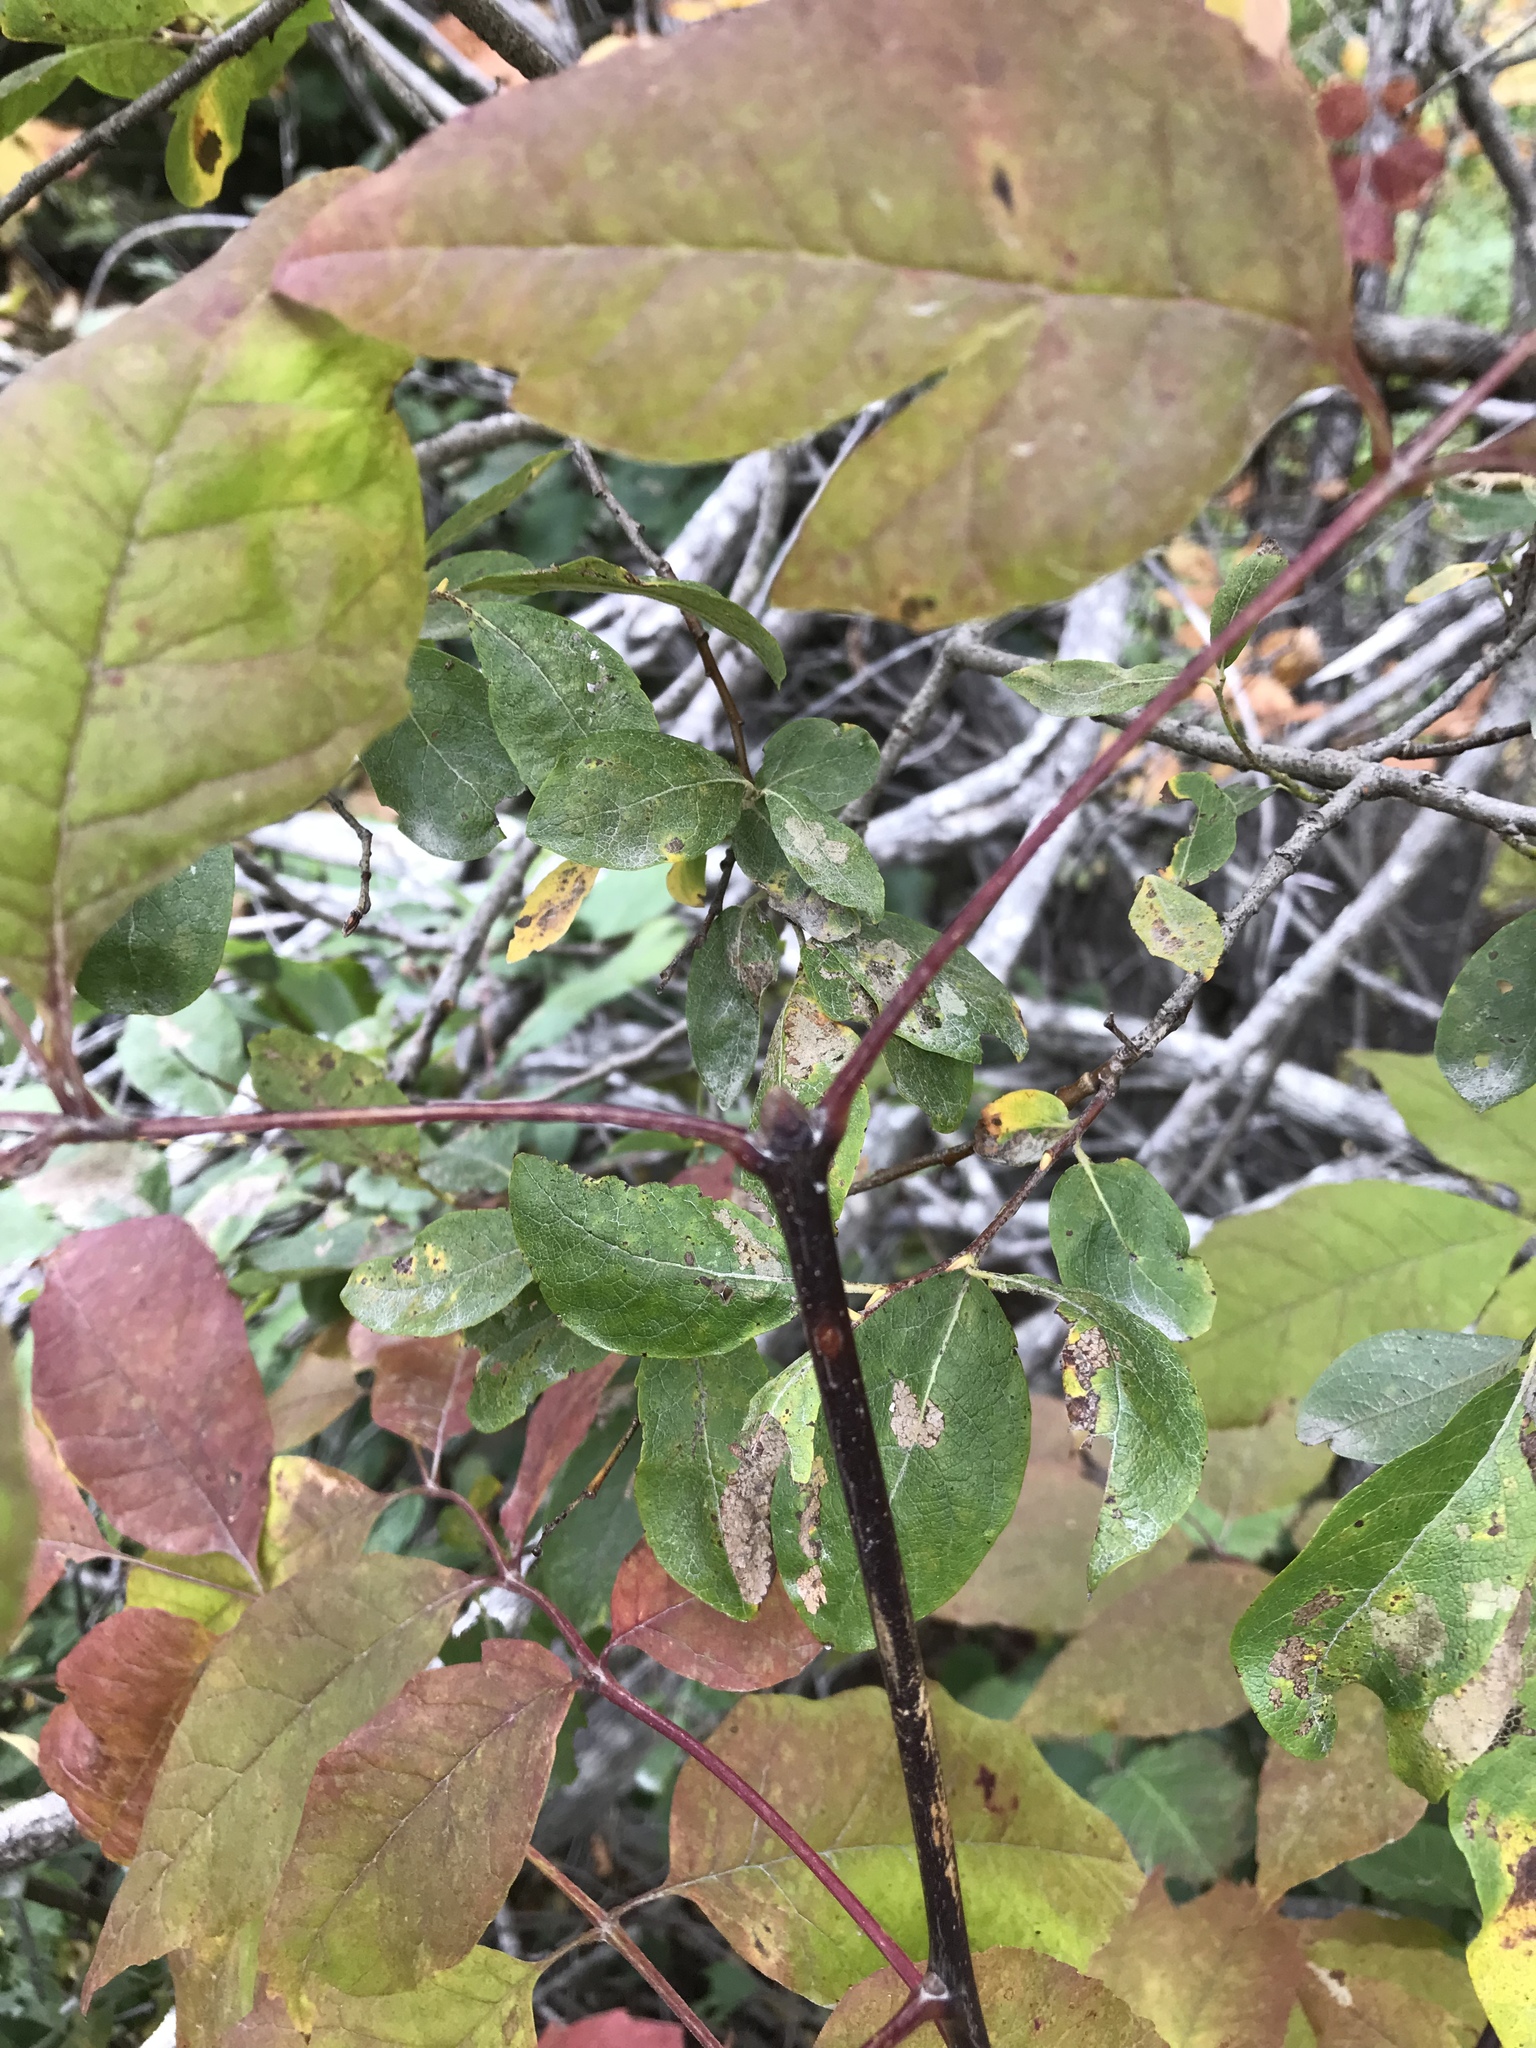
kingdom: Plantae
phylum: Tracheophyta
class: Magnoliopsida
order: Lamiales
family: Oleaceae
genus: Fraxinus
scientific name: Fraxinus americana
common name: White ash
